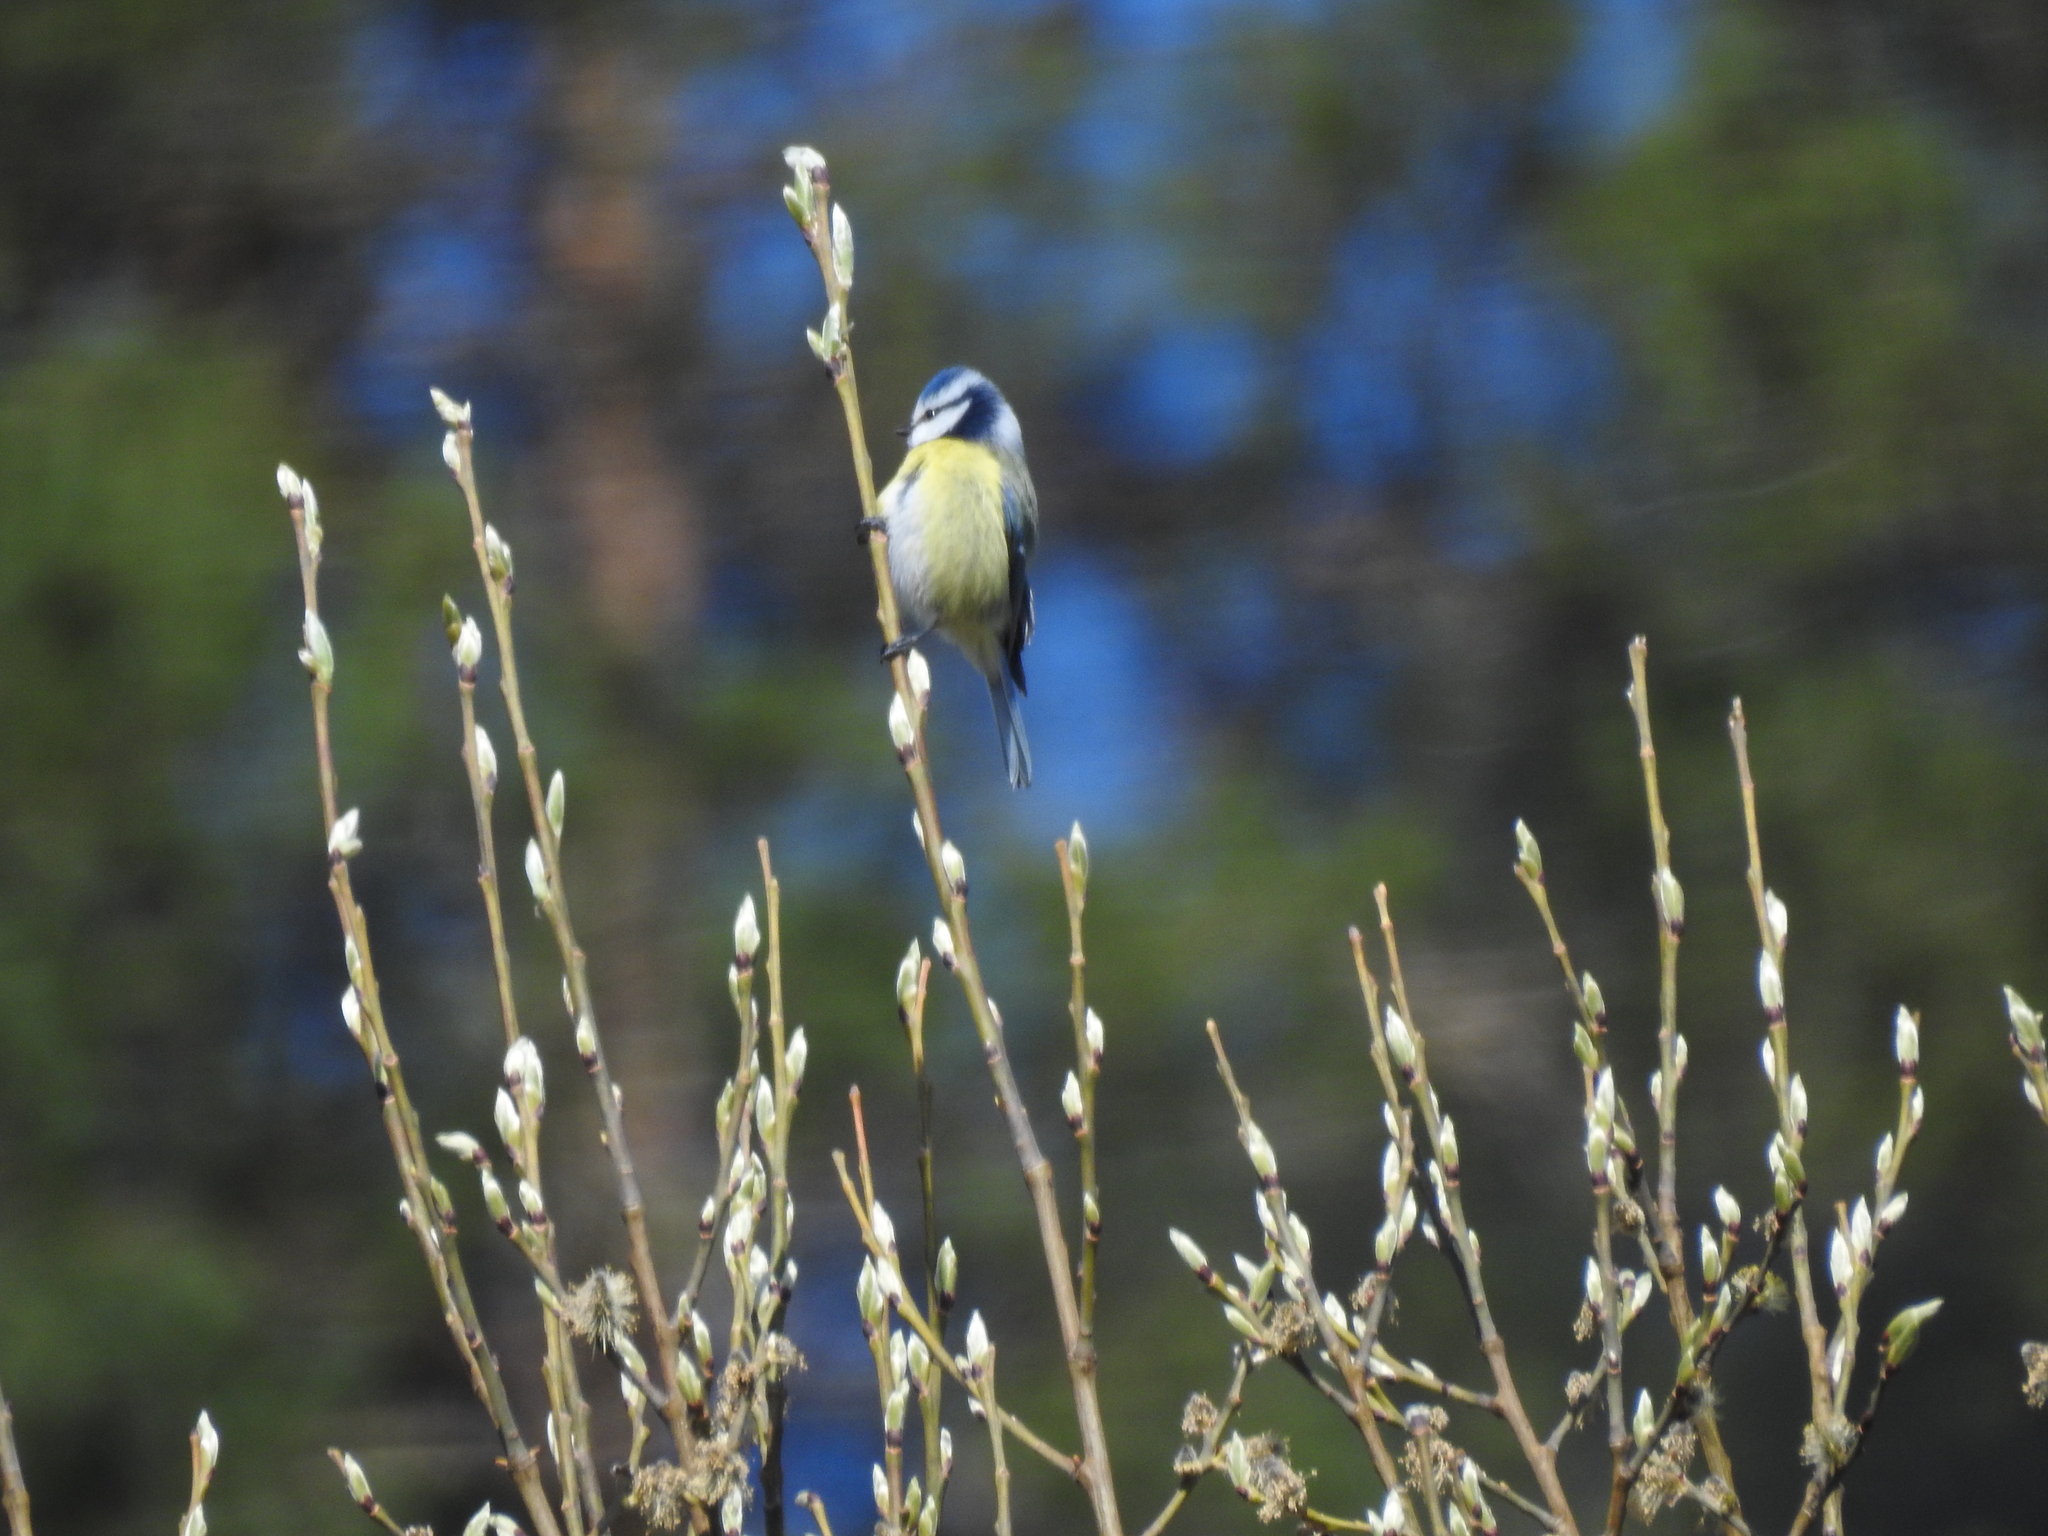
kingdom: Animalia
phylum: Chordata
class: Aves
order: Passeriformes
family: Paridae
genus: Cyanistes
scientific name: Cyanistes caeruleus
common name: Eurasian blue tit
